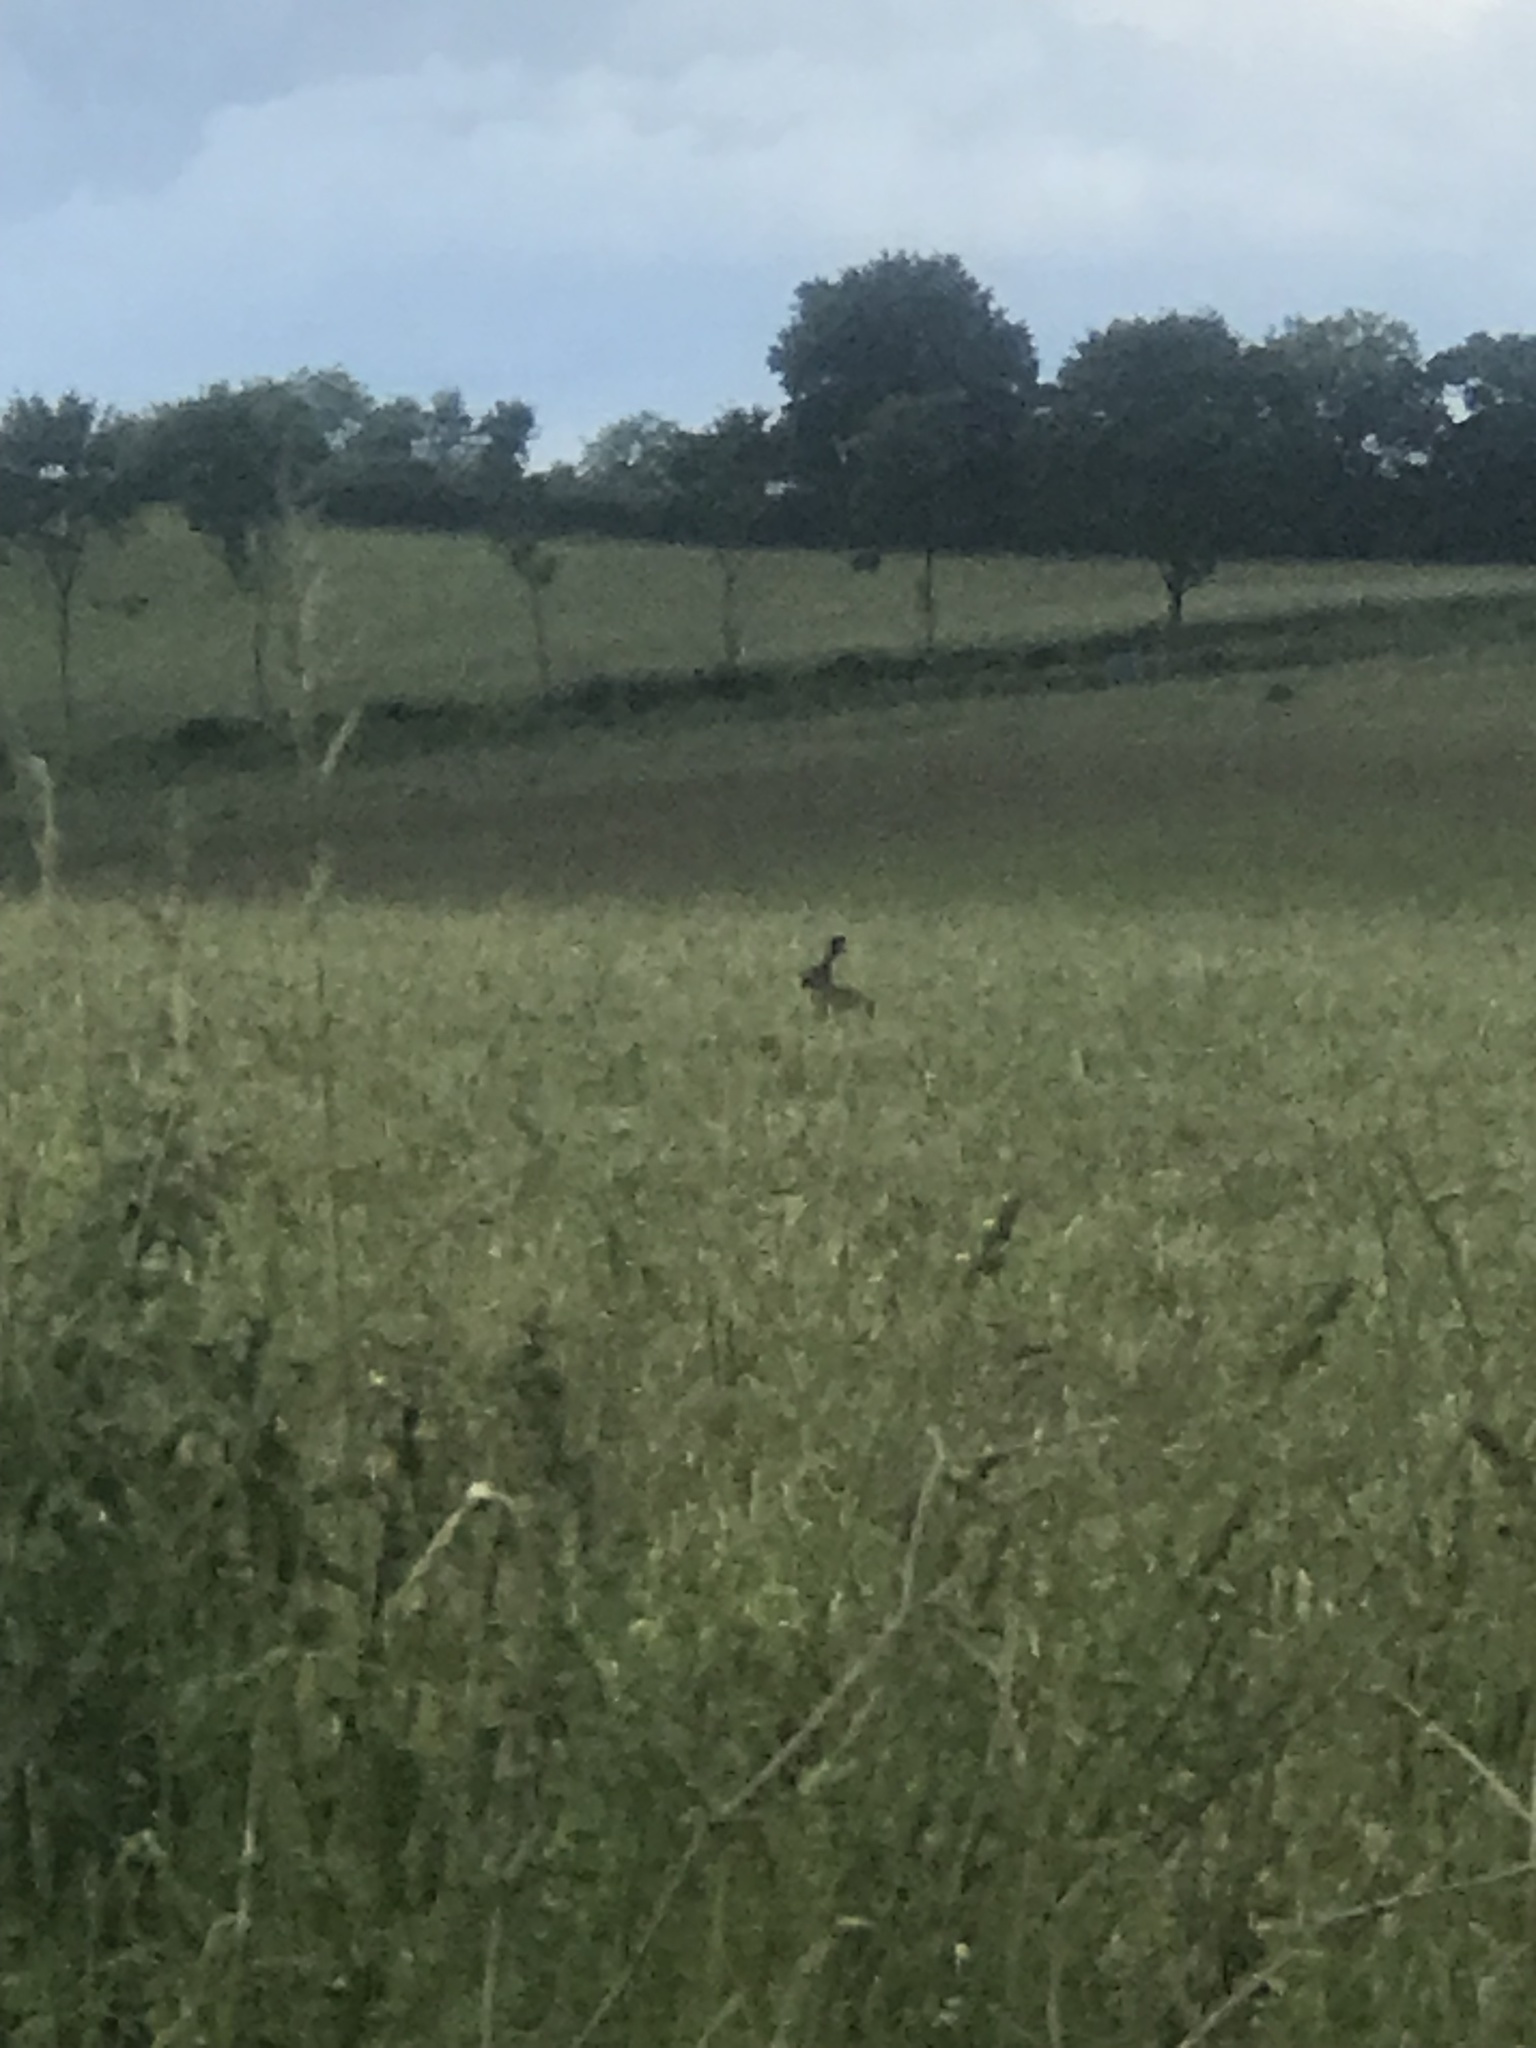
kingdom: Animalia
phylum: Chordata
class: Mammalia
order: Lagomorpha
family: Leporidae
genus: Lepus
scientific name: Lepus europaeus
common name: European hare
